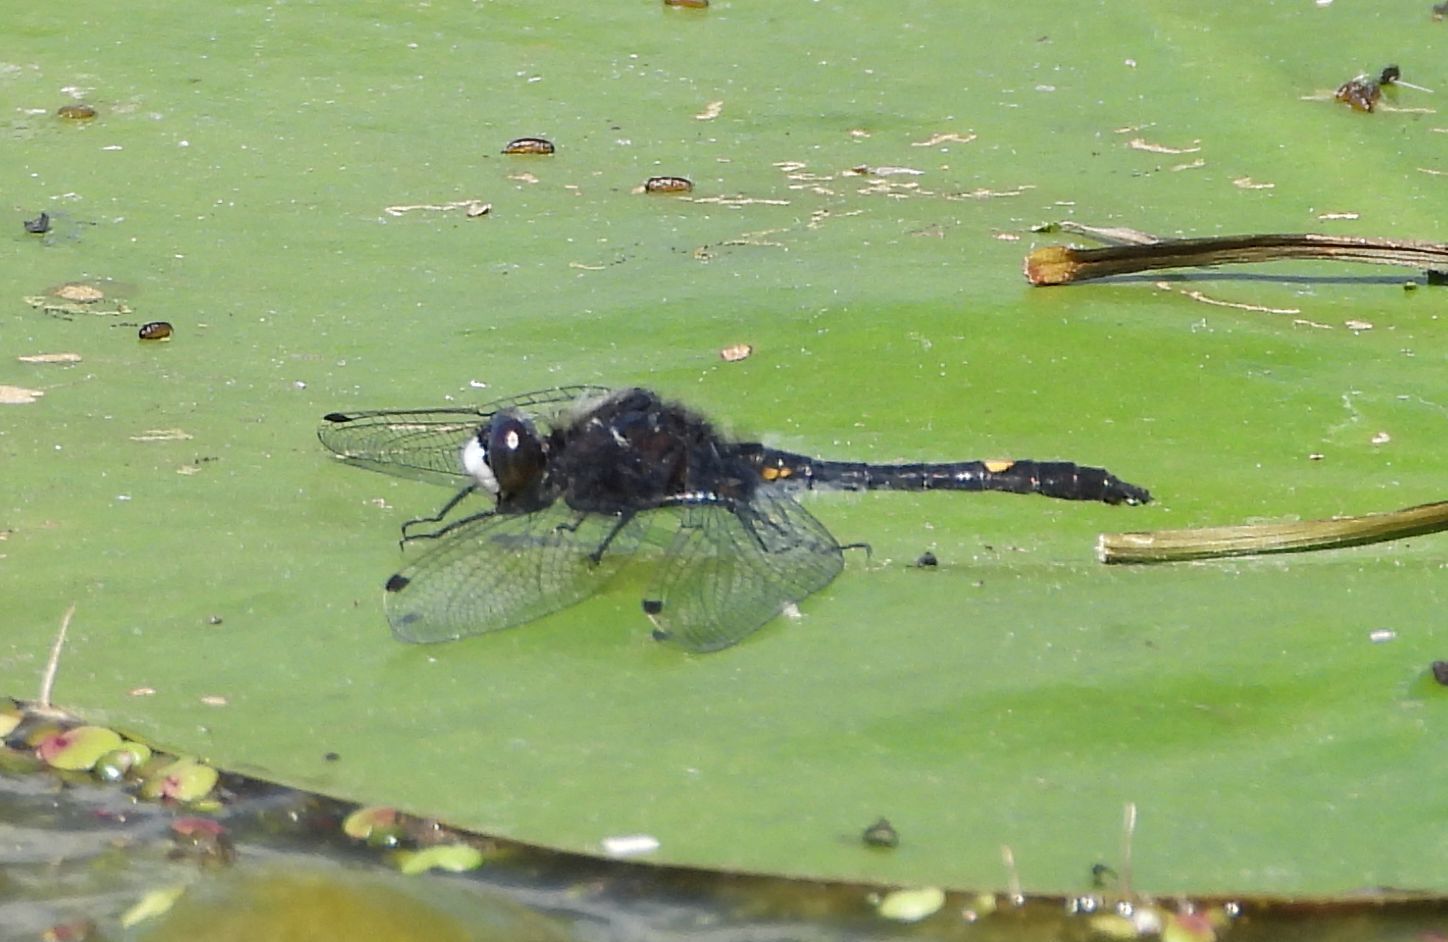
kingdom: Animalia
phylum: Arthropoda
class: Insecta
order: Odonata
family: Libellulidae
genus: Leucorrhinia
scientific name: Leucorrhinia intacta
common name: Dot-tailed whiteface
